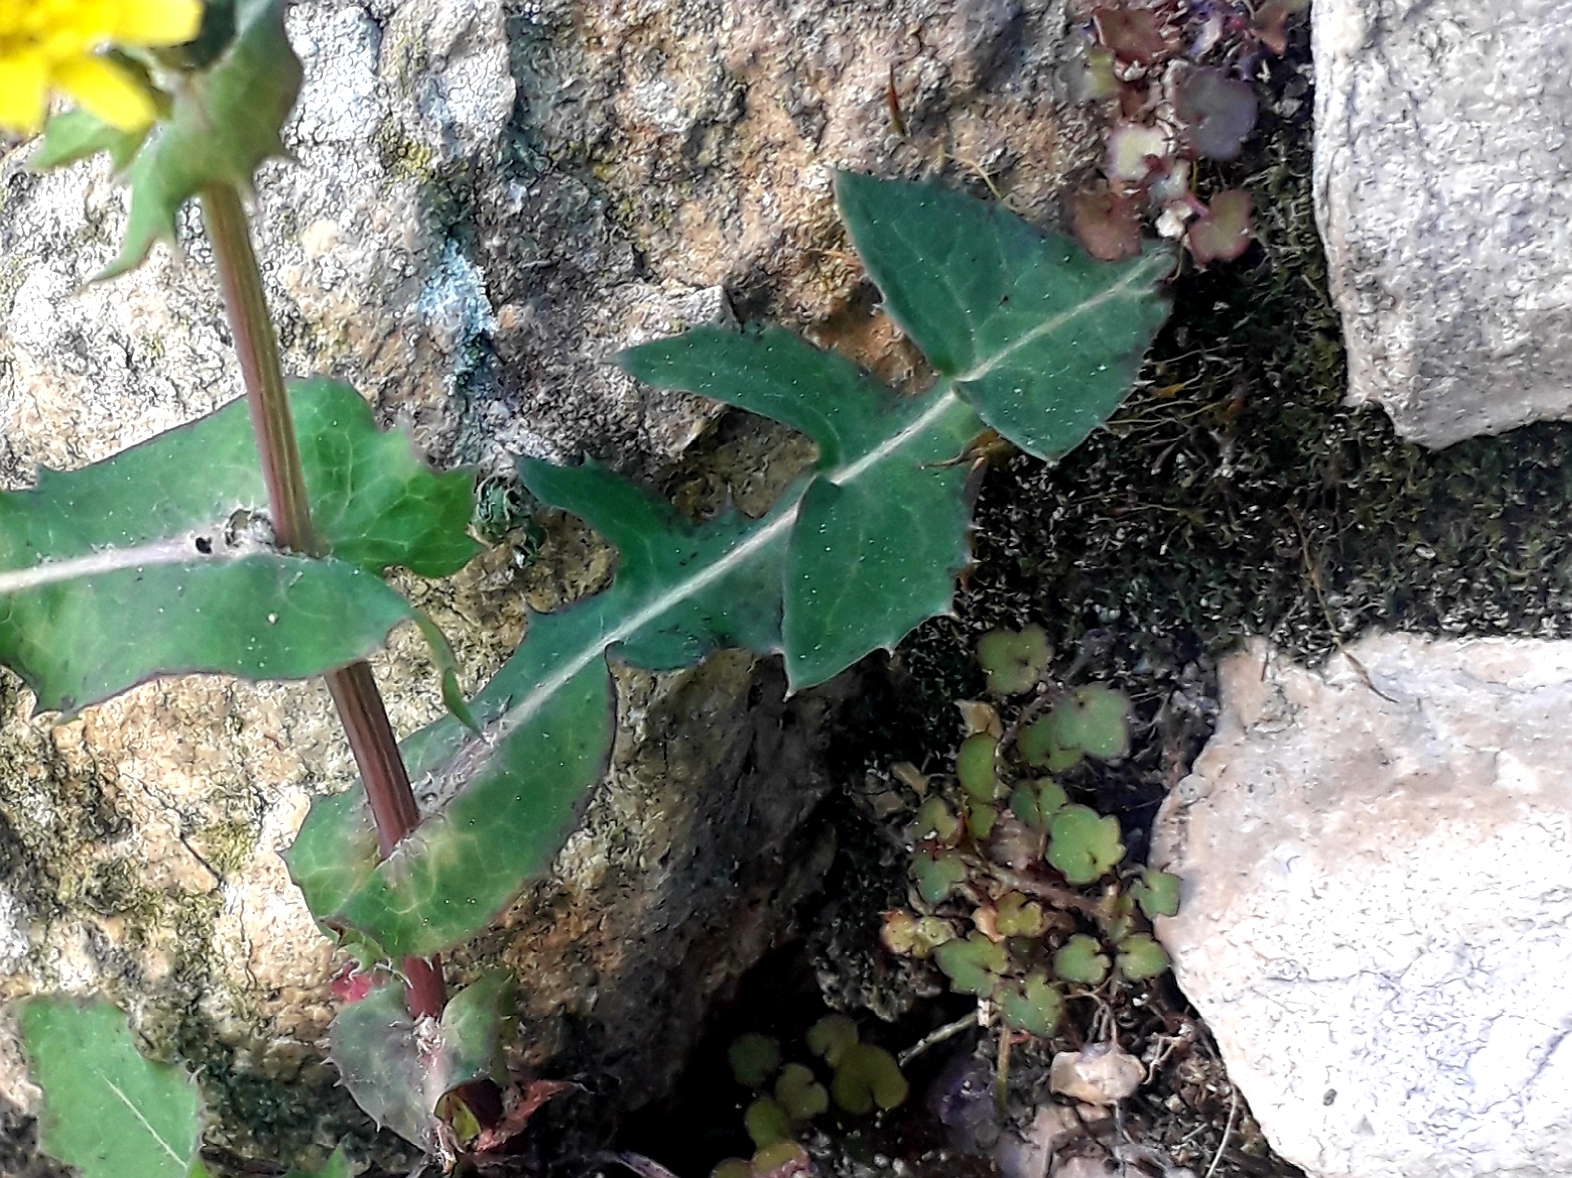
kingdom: Plantae
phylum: Tracheophyta
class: Magnoliopsida
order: Asterales
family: Asteraceae
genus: Sonchus
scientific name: Sonchus oleraceus
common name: Common sowthistle
